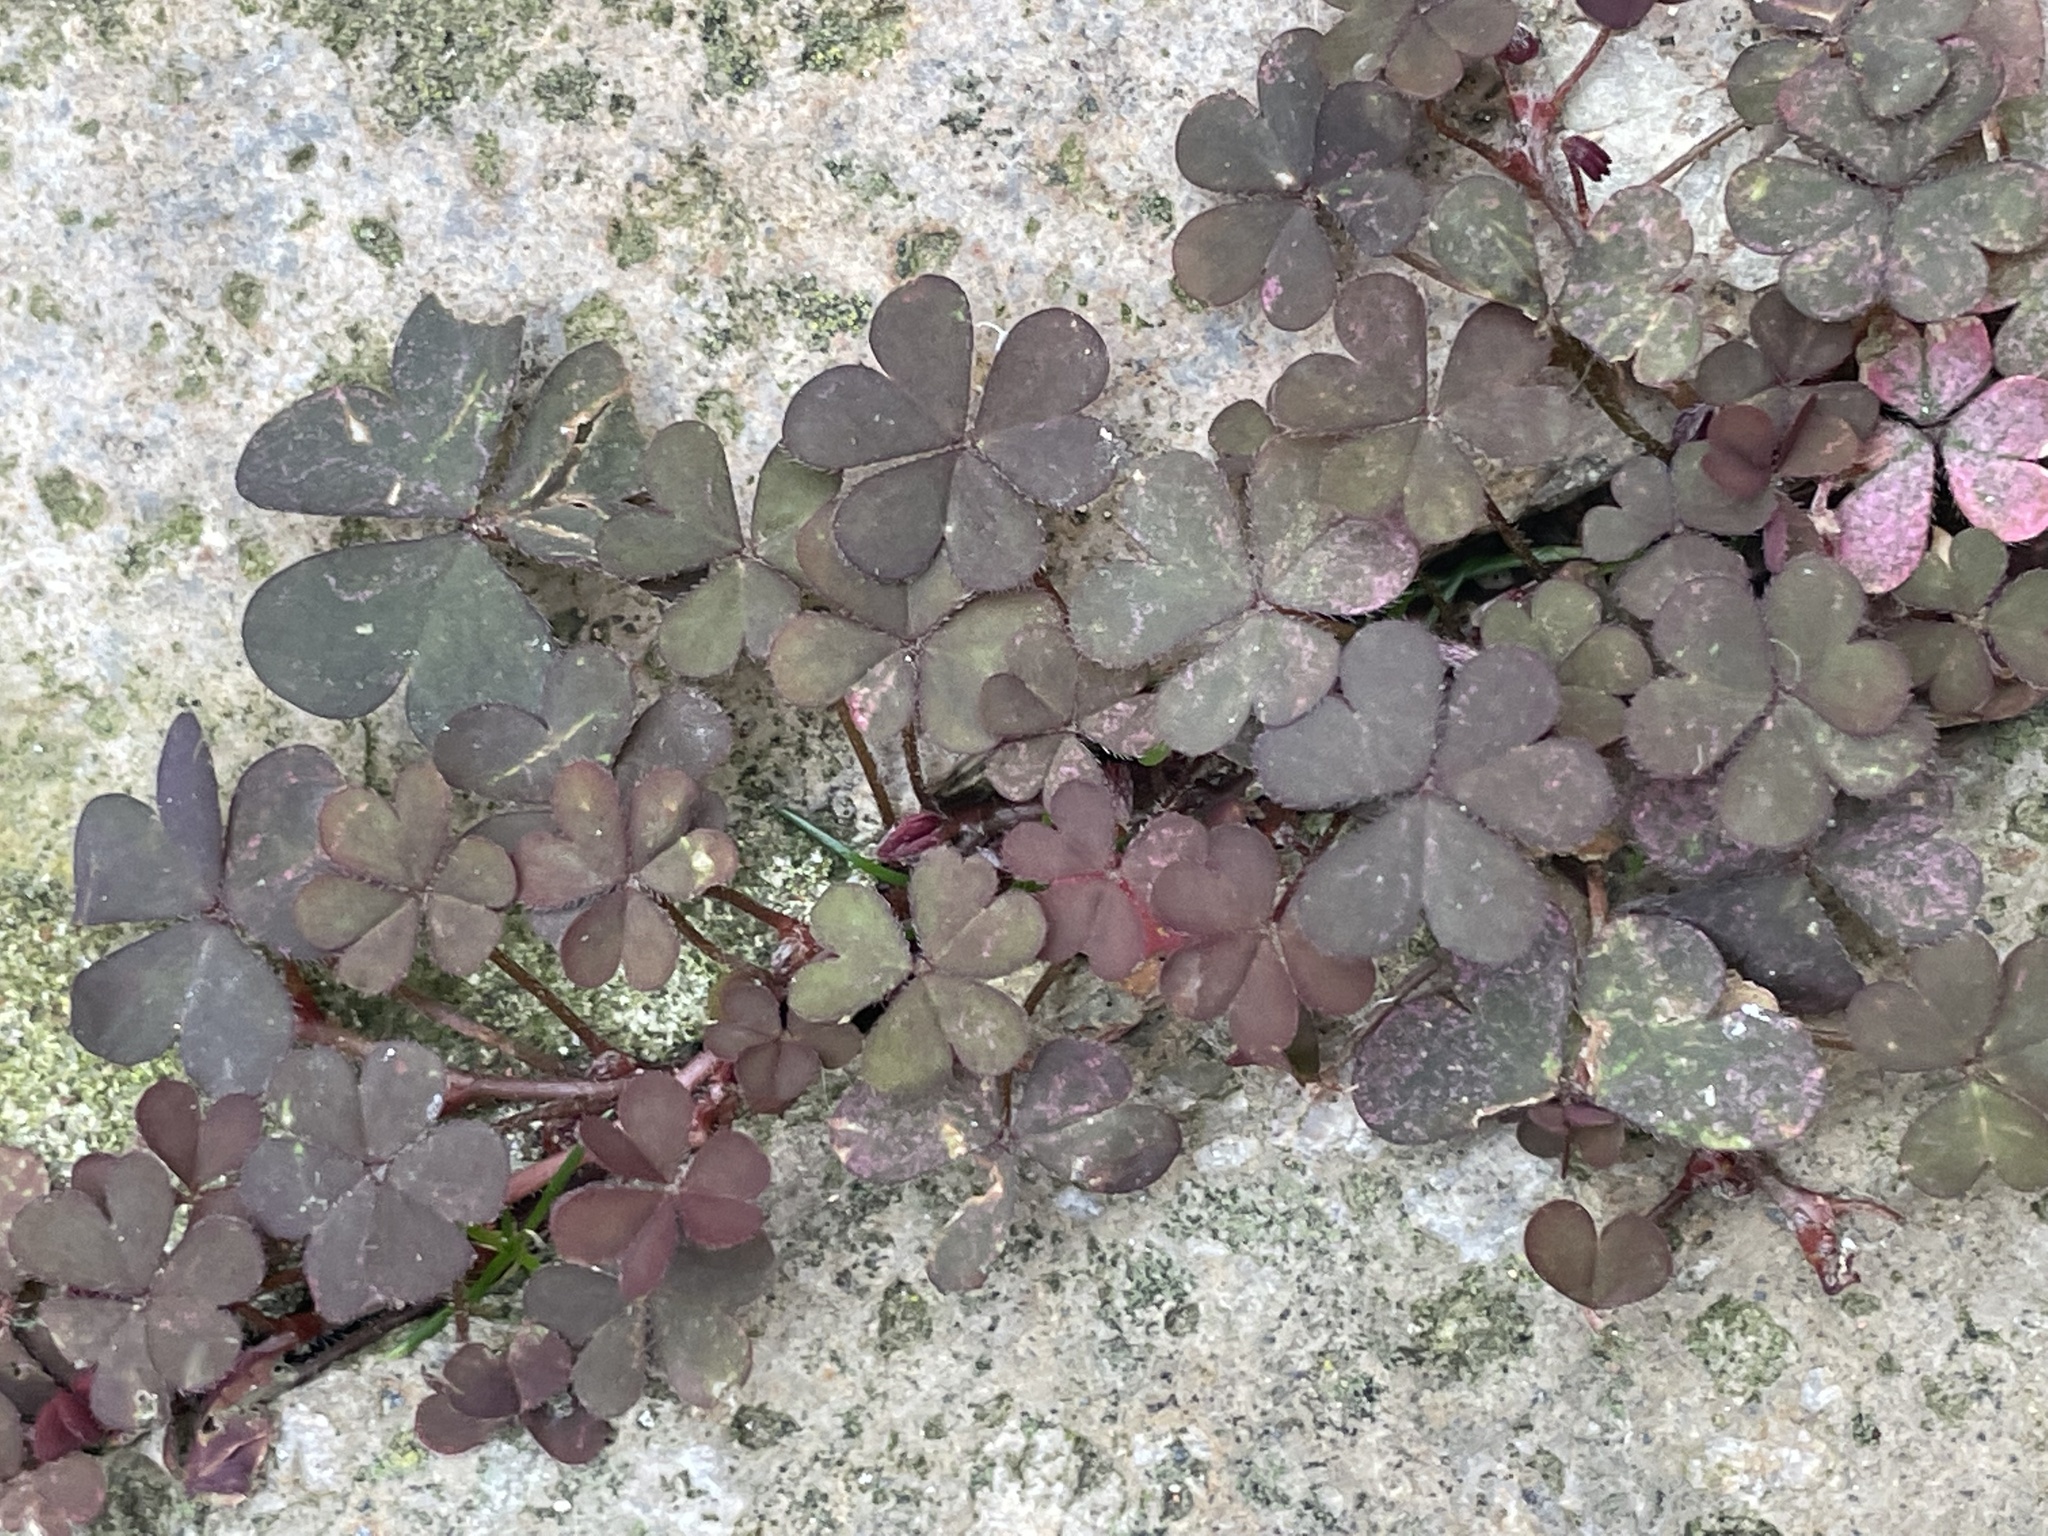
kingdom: Plantae
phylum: Tracheophyta
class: Magnoliopsida
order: Oxalidales
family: Oxalidaceae
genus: Oxalis
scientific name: Oxalis corniculata
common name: Procumbent yellow-sorrel
